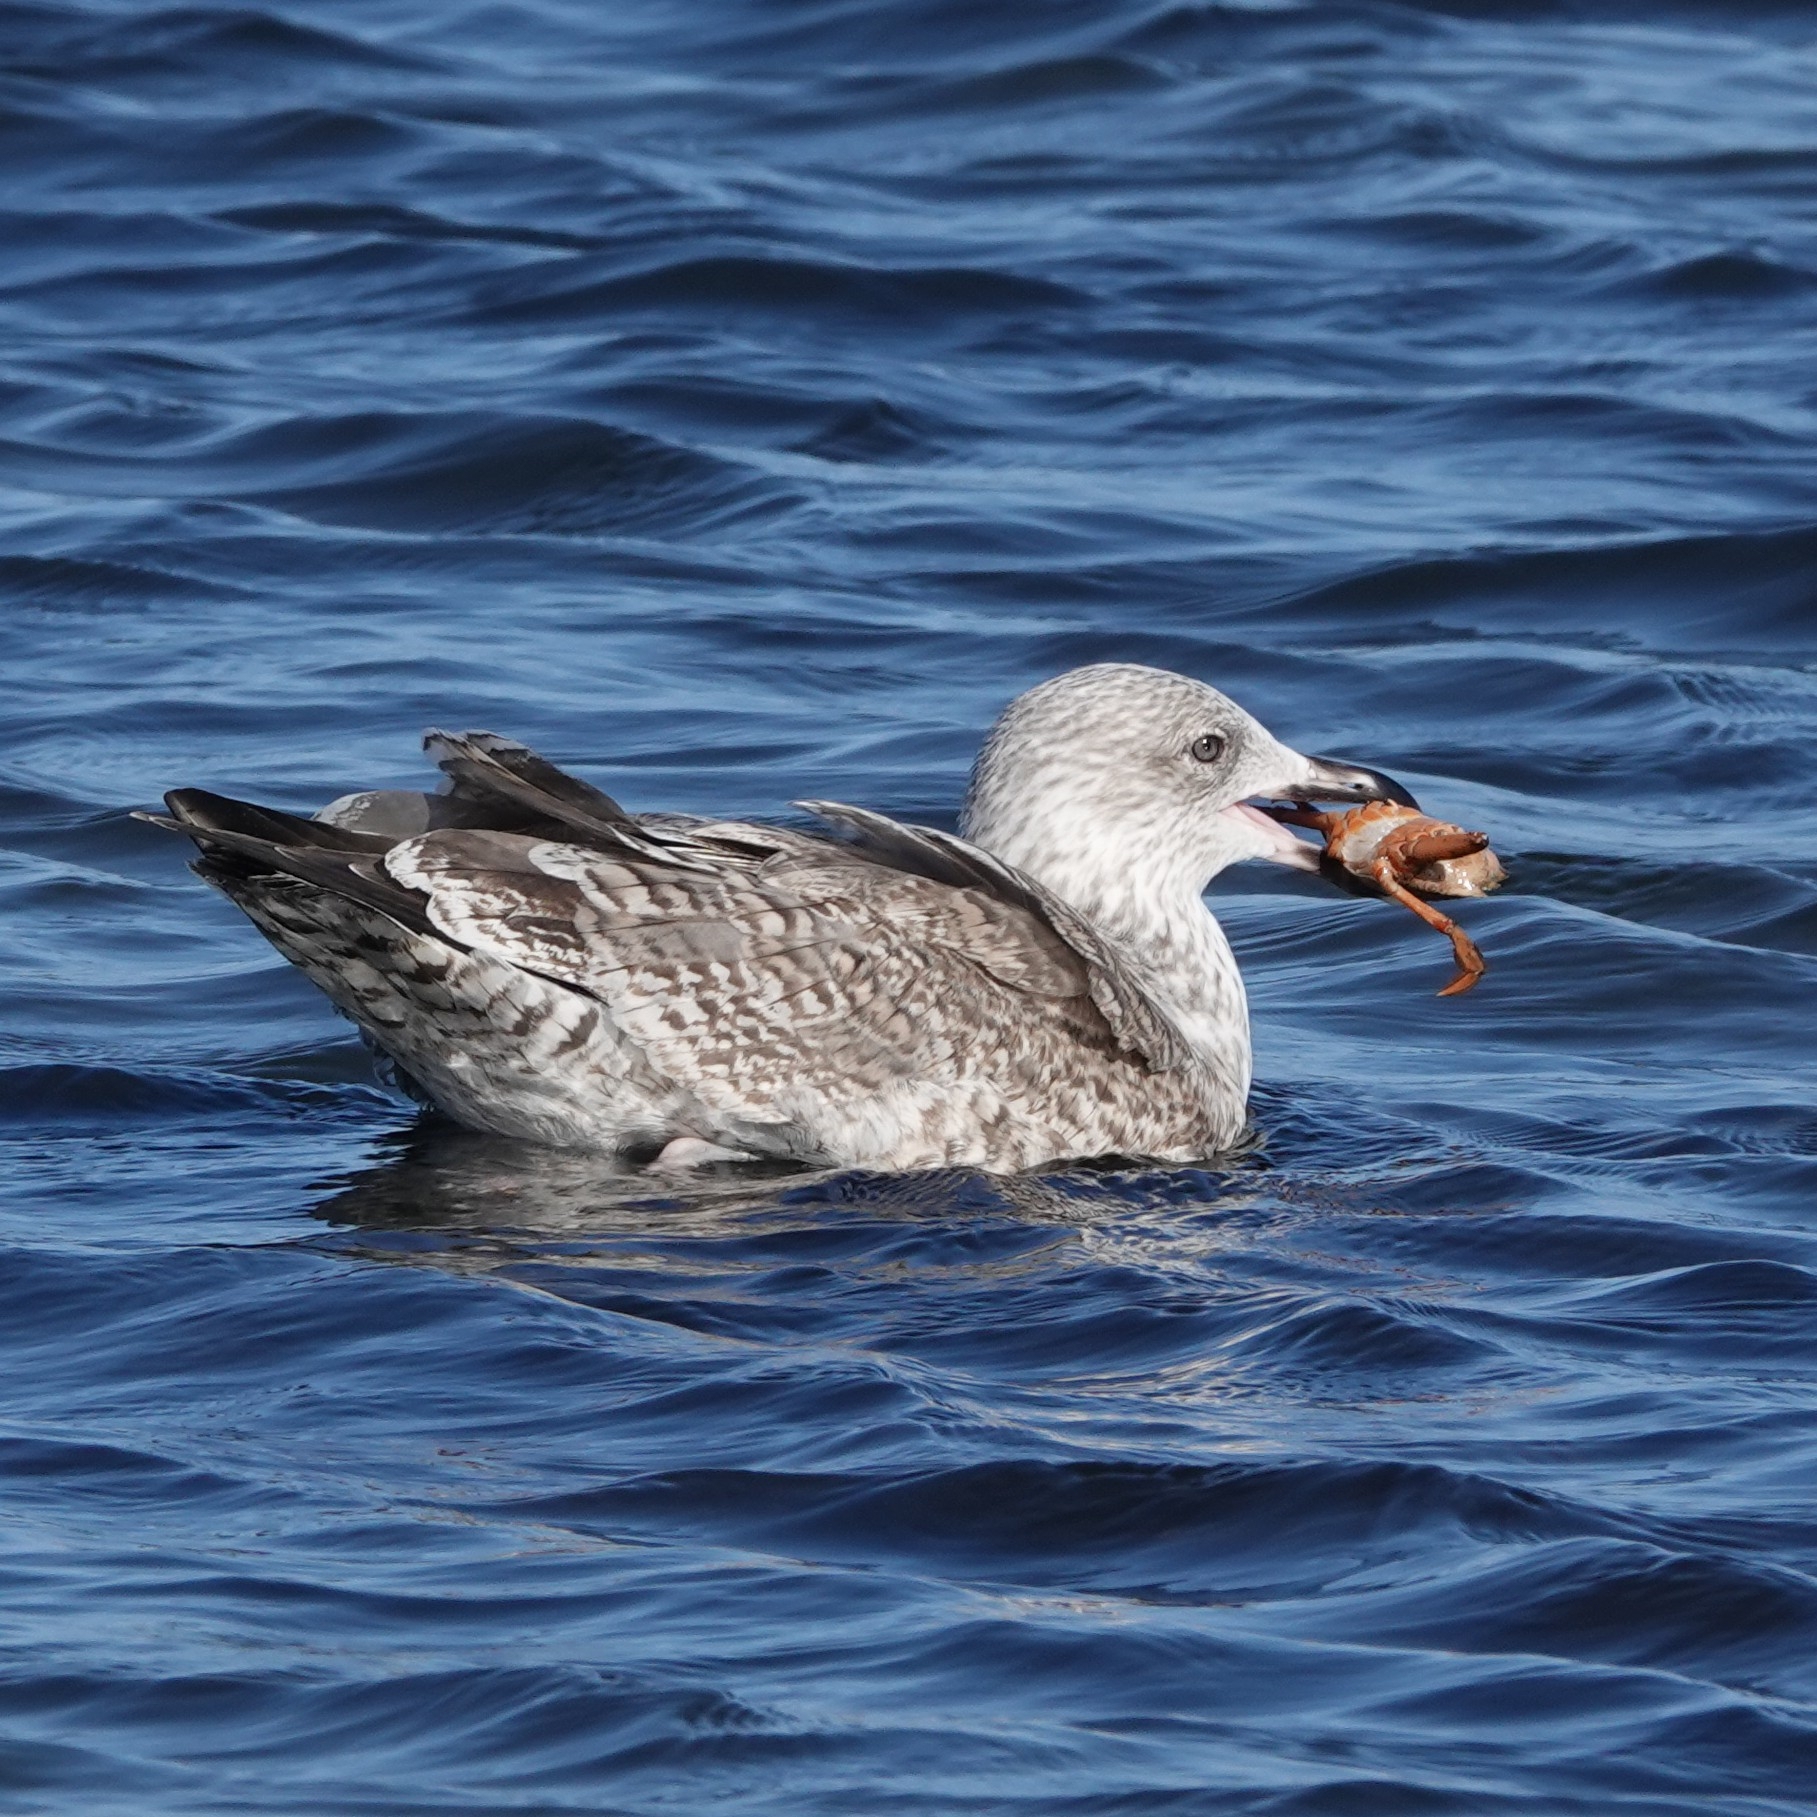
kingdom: Animalia
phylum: Chordata
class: Aves
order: Charadriiformes
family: Laridae
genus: Larus
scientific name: Larus argentatus
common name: Herring gull
